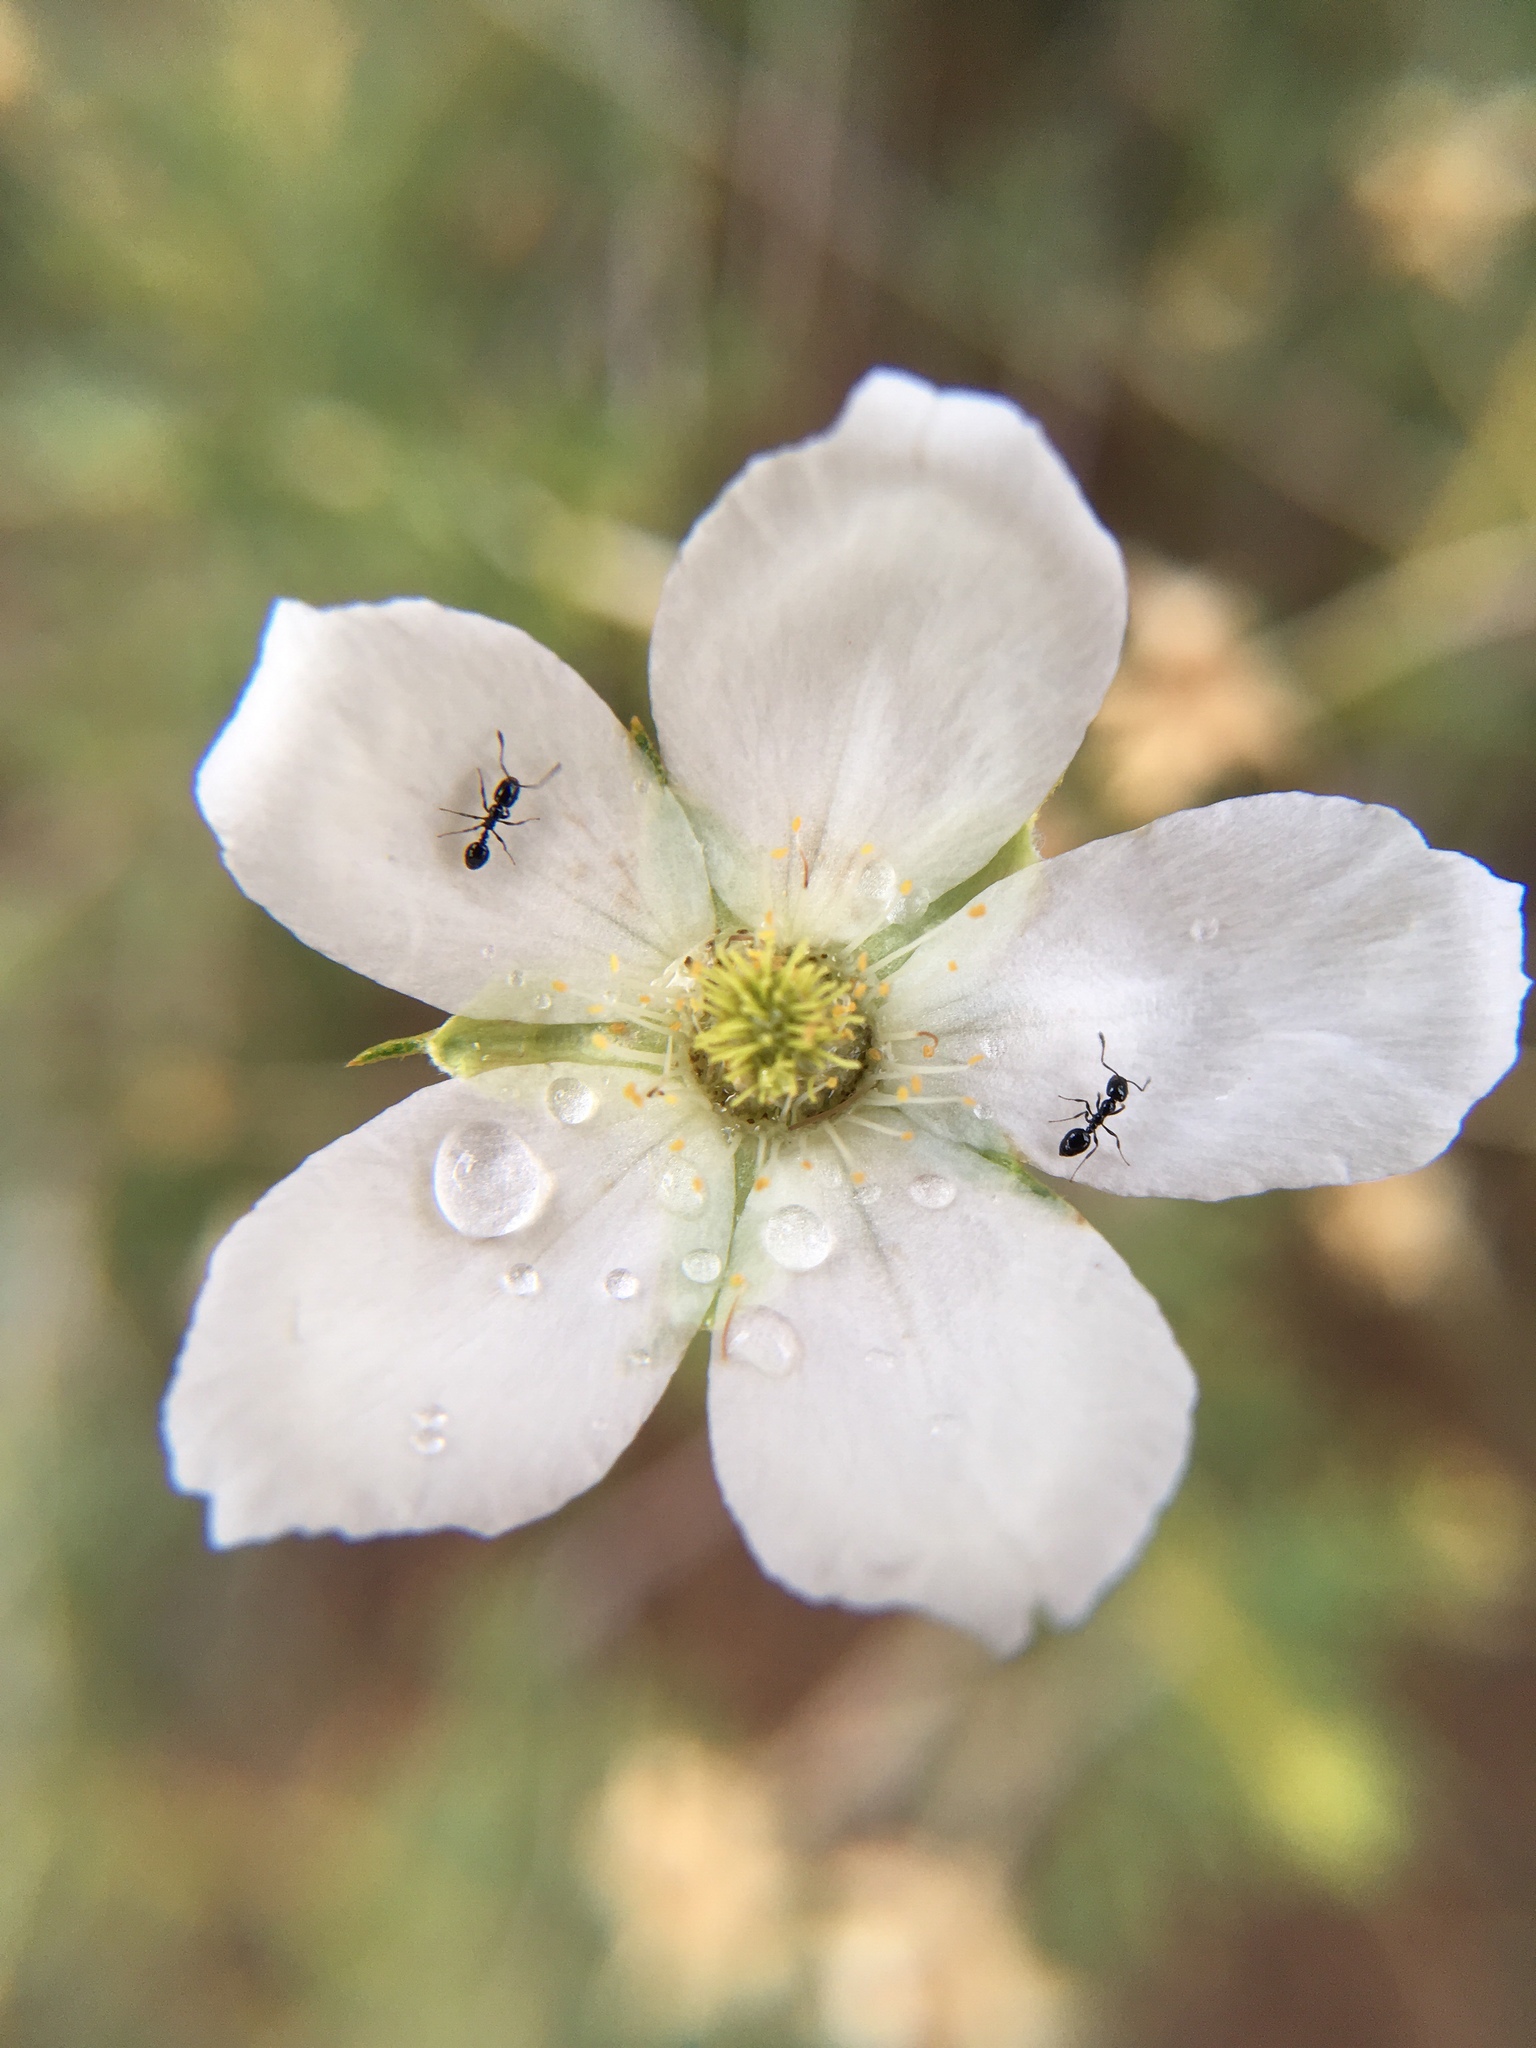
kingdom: Plantae
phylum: Tracheophyta
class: Magnoliopsida
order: Rosales
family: Rosaceae
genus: Fallugia
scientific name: Fallugia paradoxa
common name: Apache-plume
